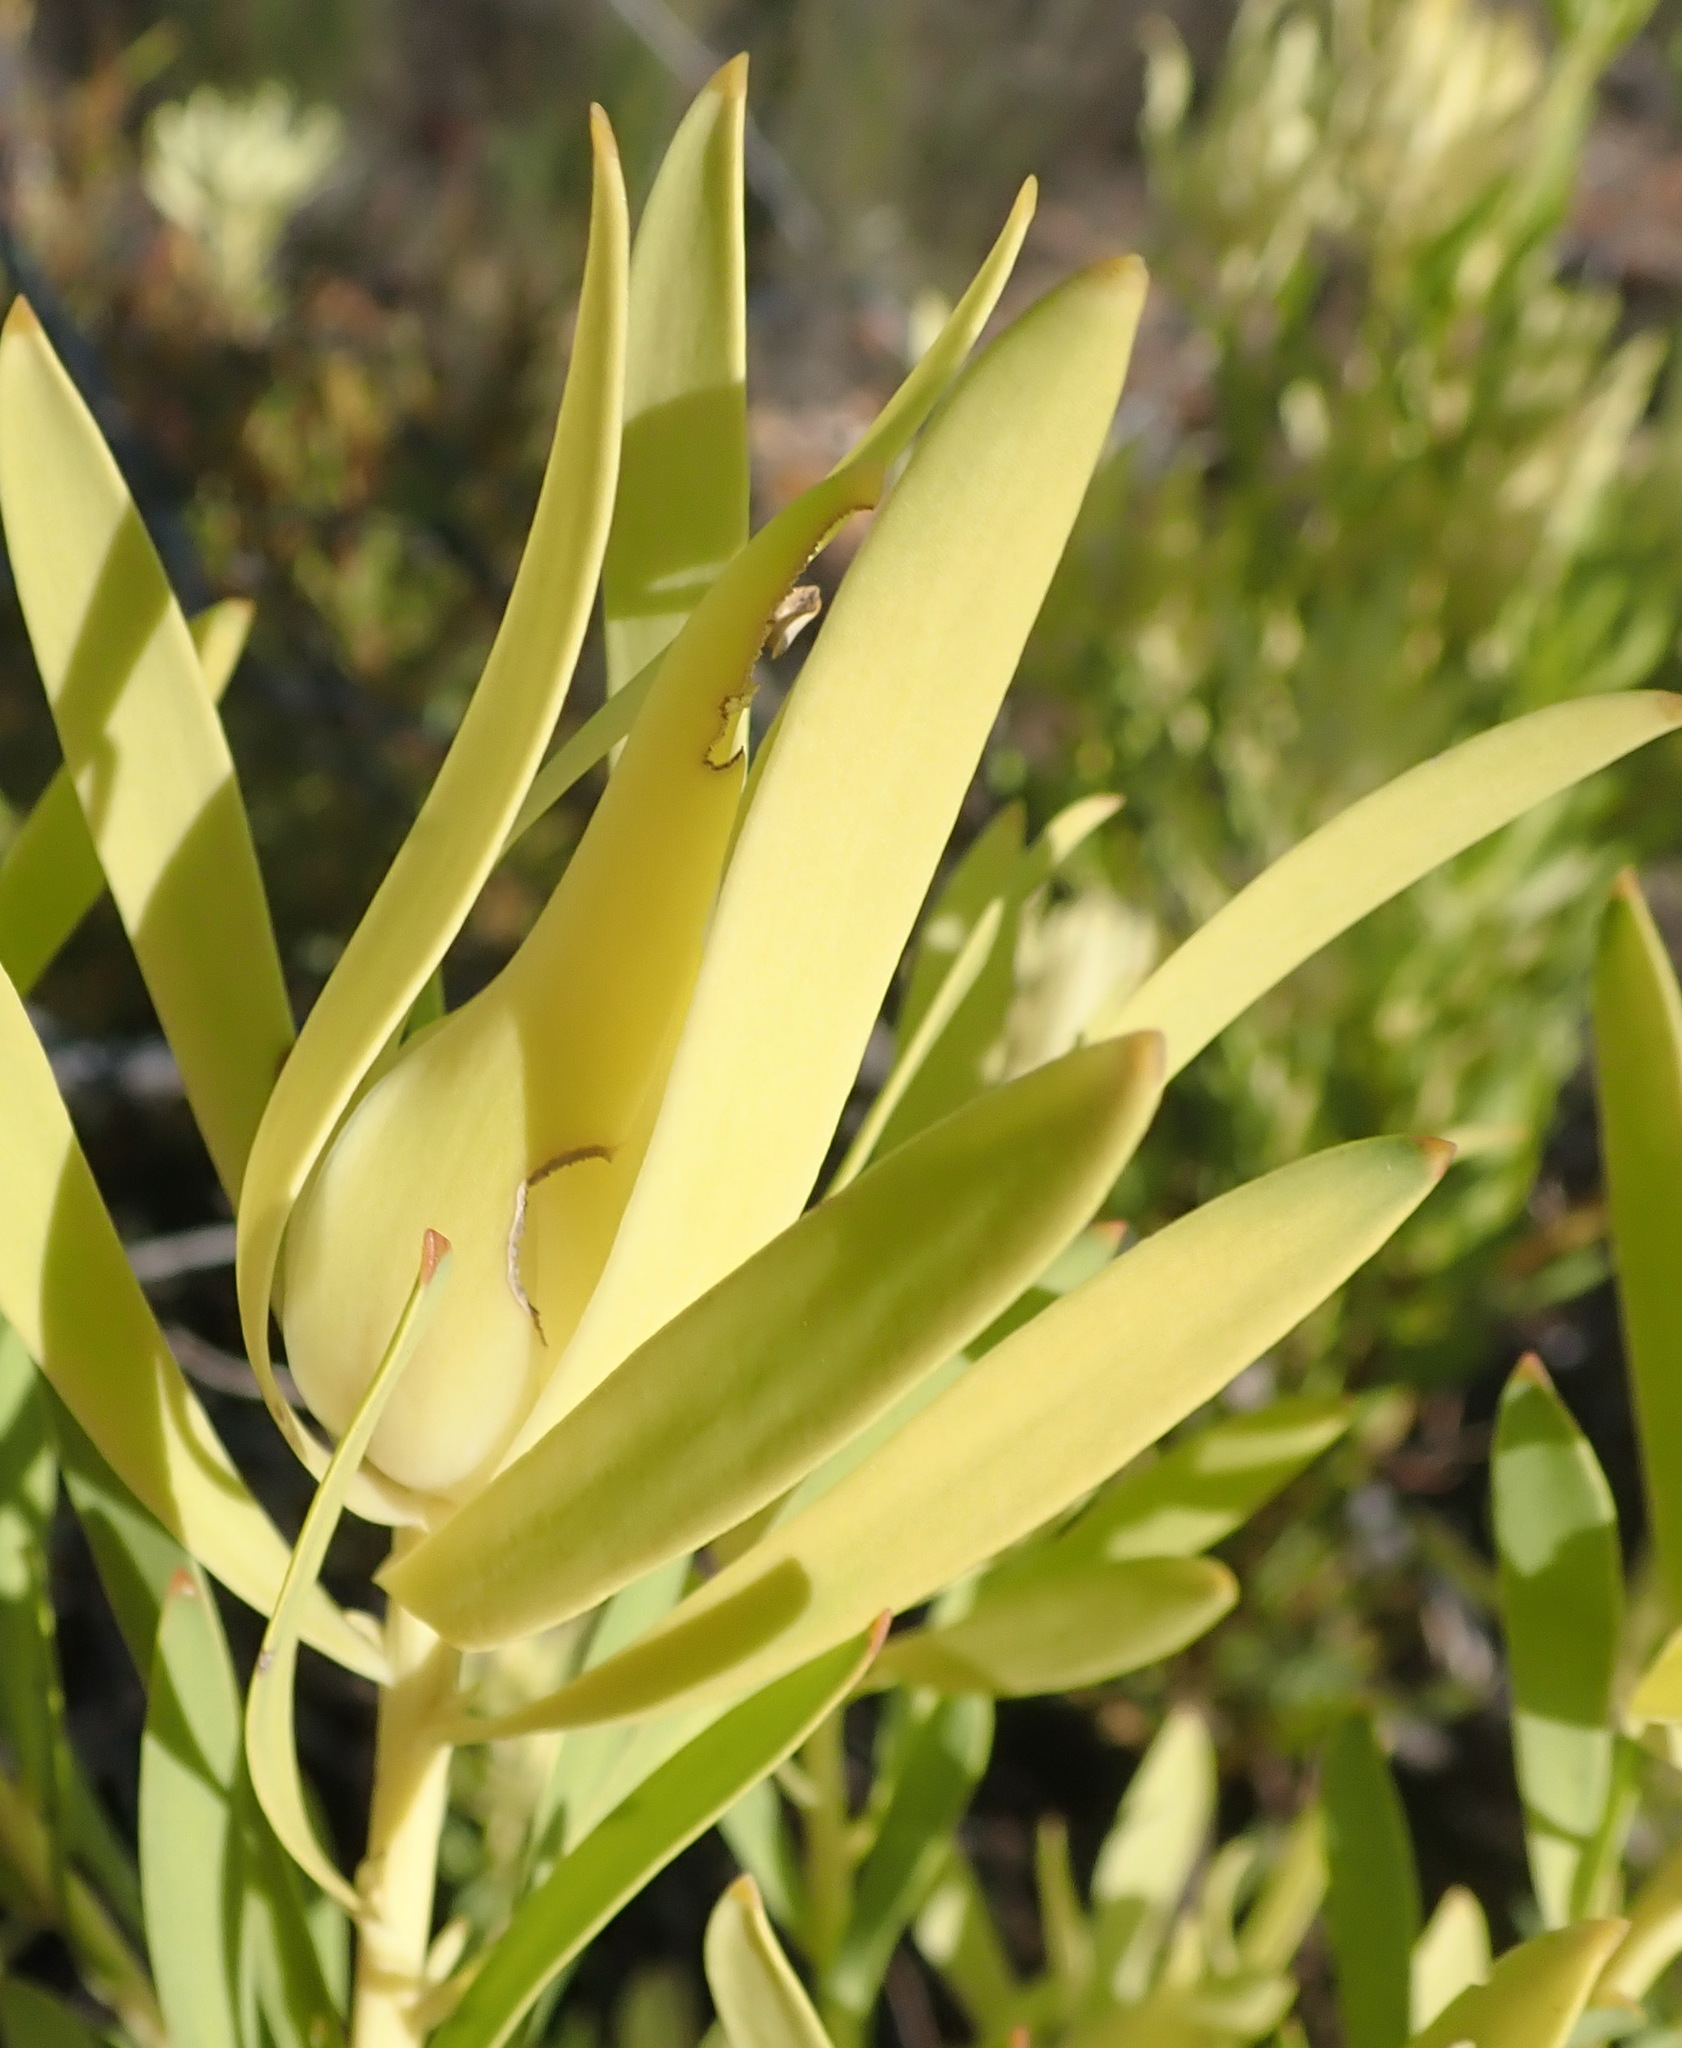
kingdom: Plantae
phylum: Tracheophyta
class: Magnoliopsida
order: Proteales
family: Proteaceae
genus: Leucadendron
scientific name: Leucadendron salignum
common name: Common sunshine conebush
